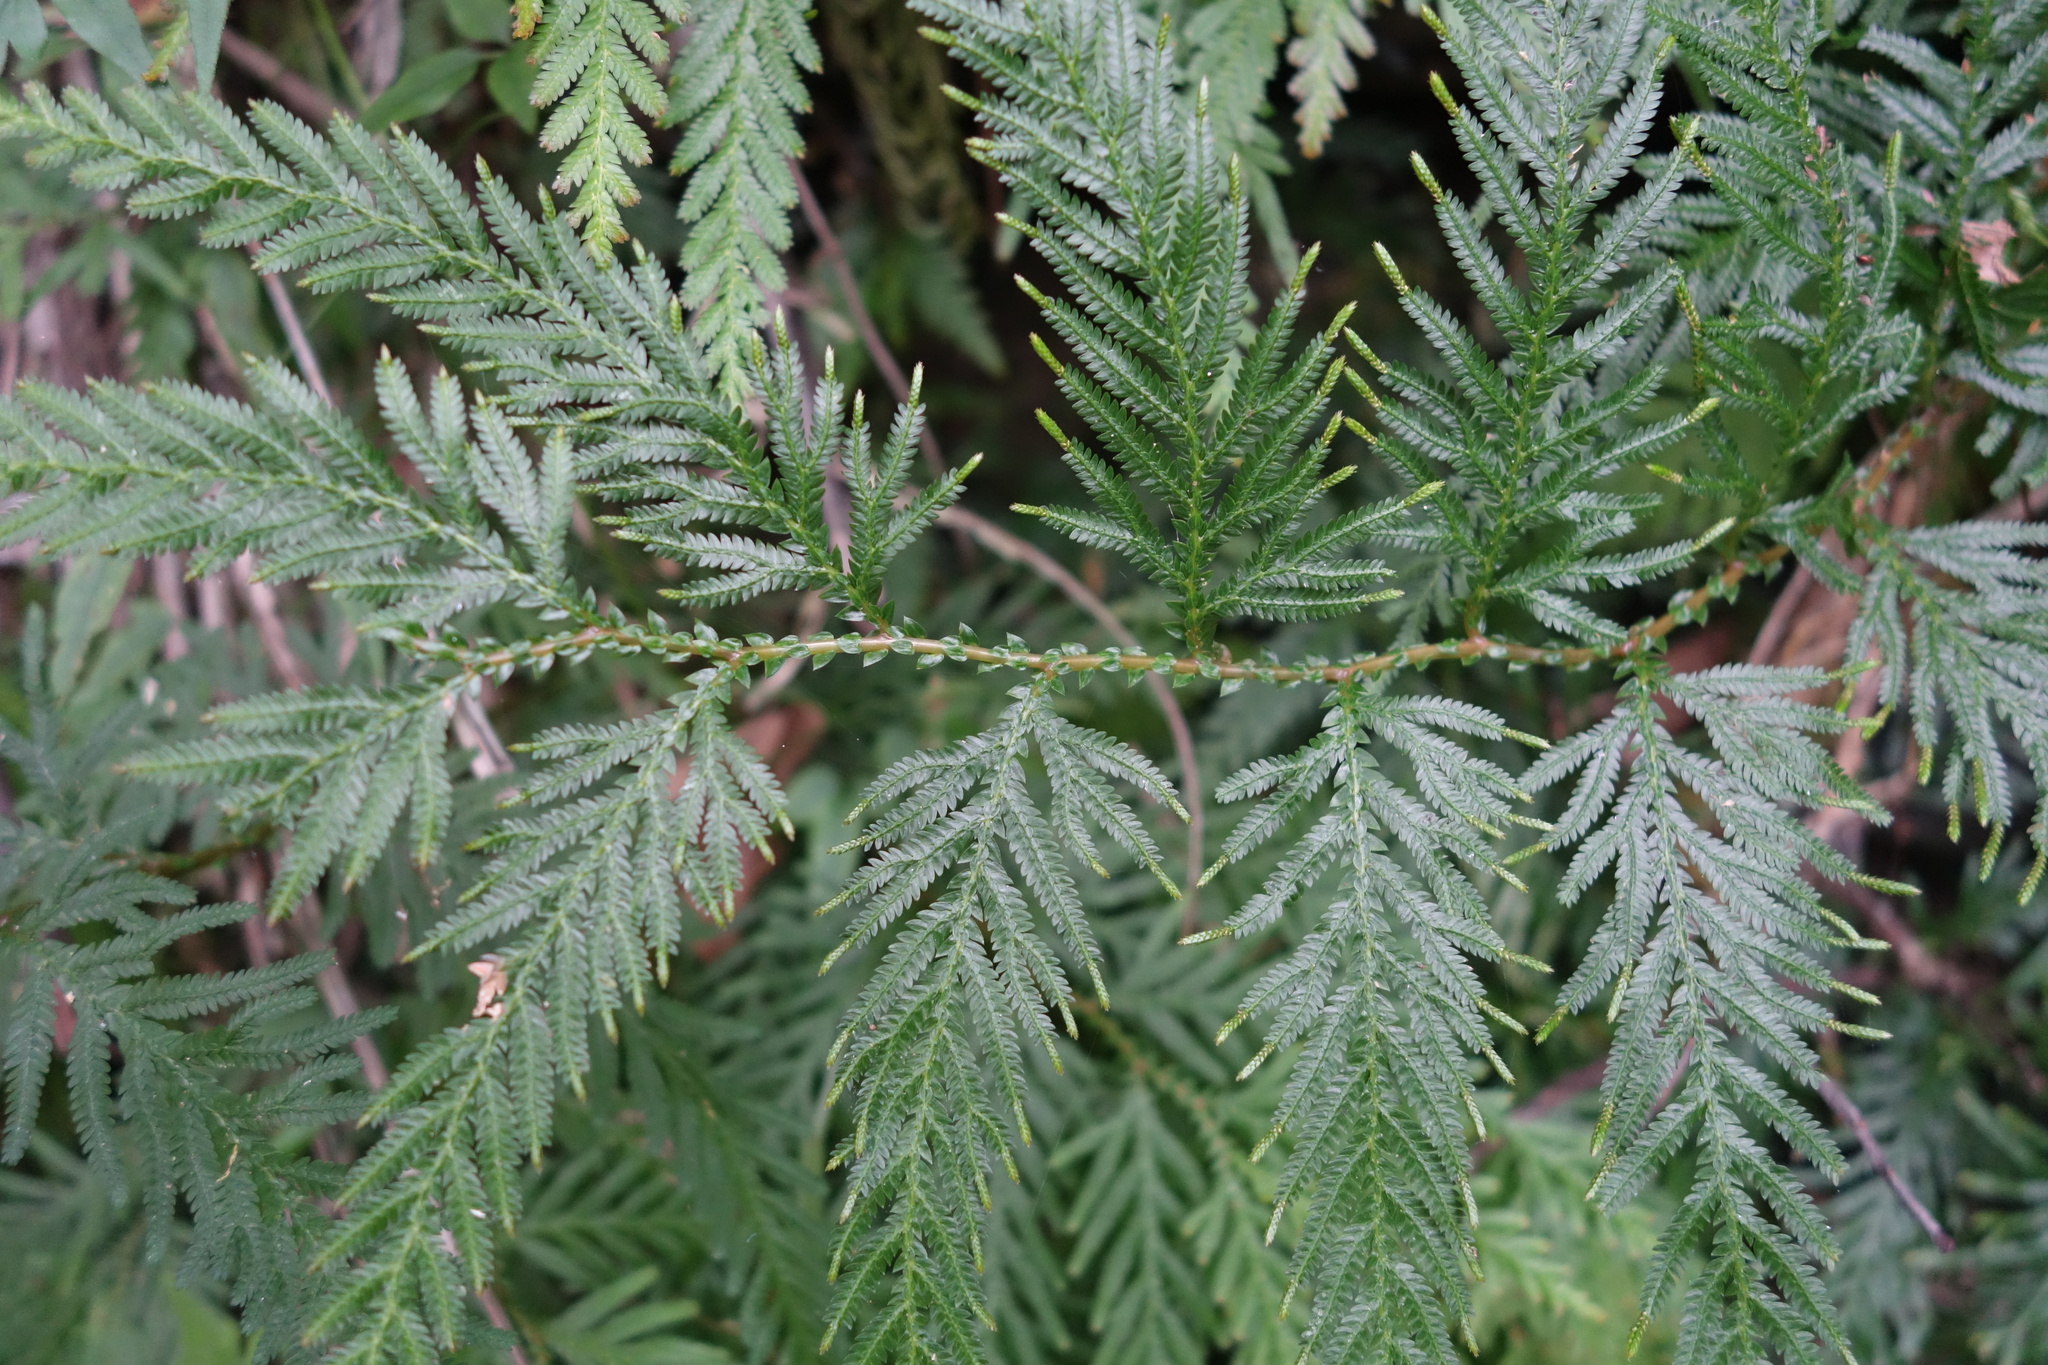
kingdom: Plantae
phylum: Tracheophyta
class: Lycopodiopsida
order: Selaginellales
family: Selaginellaceae
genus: Selaginella
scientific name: Selaginella delicatula
